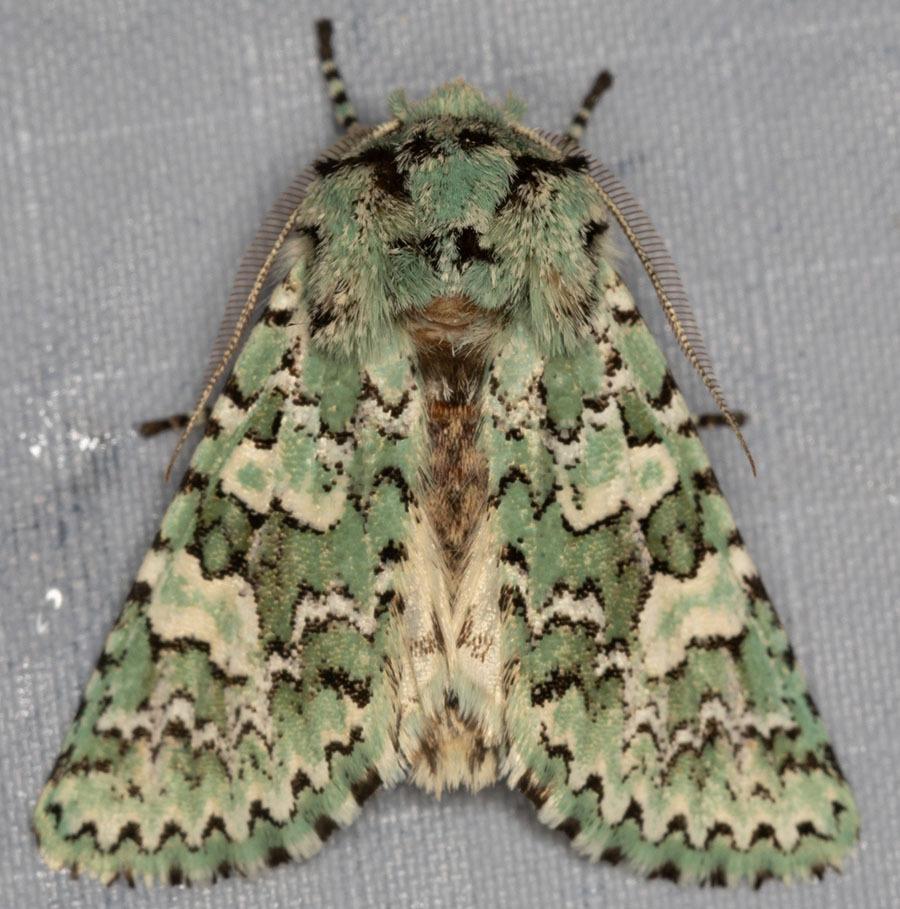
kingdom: Animalia
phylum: Arthropoda
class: Insecta
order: Lepidoptera
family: Noctuidae
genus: Feralia
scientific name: Feralia februalis
